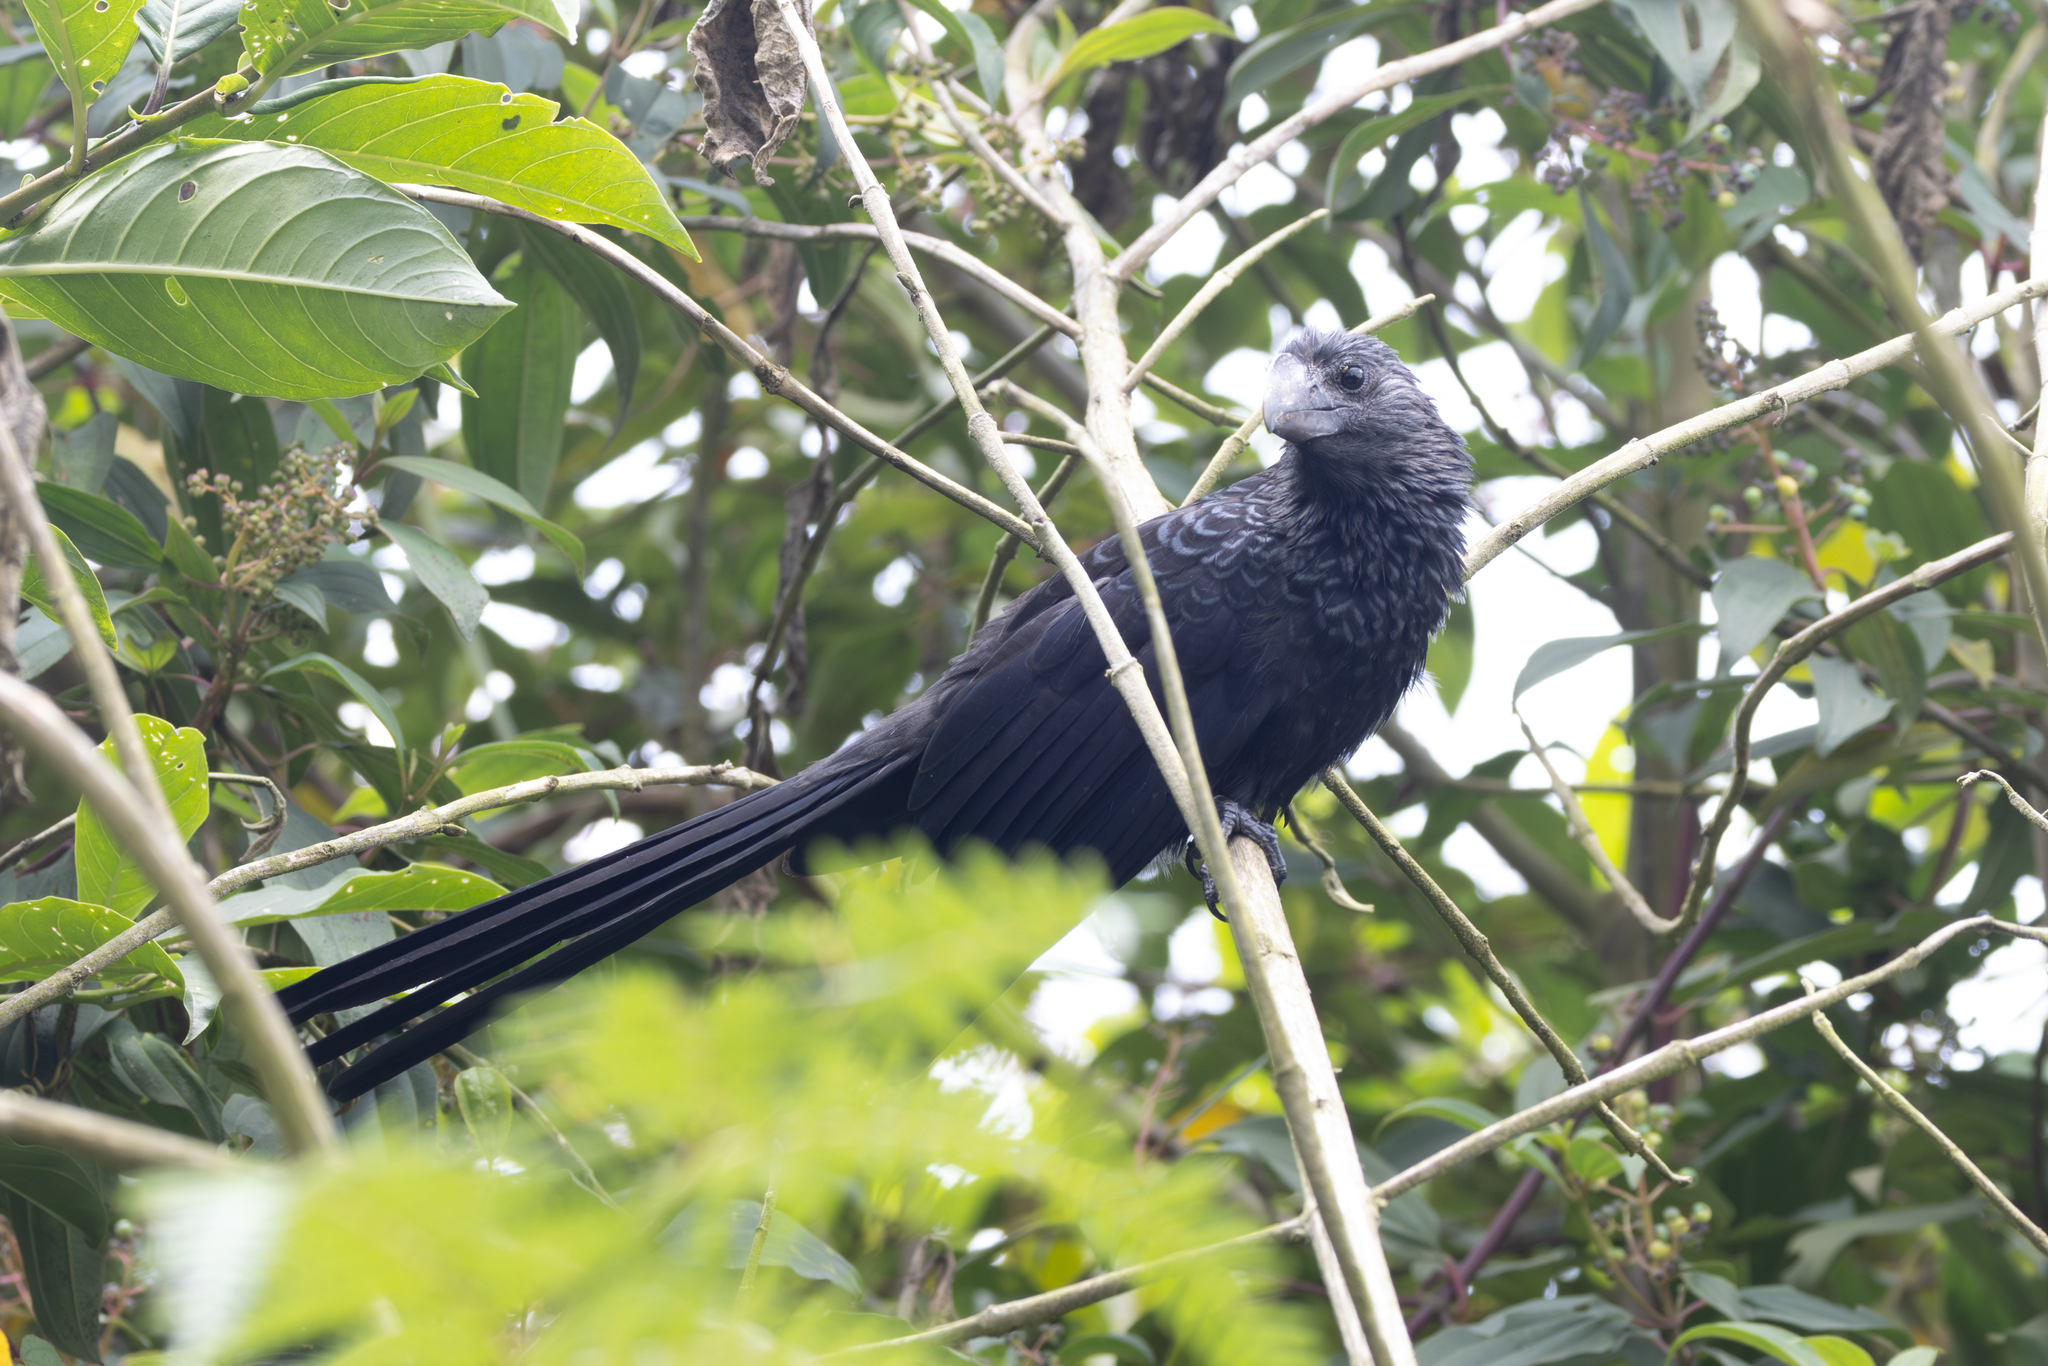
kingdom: Animalia
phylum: Chordata
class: Aves
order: Cuculiformes
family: Cuculidae
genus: Crotophaga
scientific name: Crotophaga ani
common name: Smooth-billed ani
